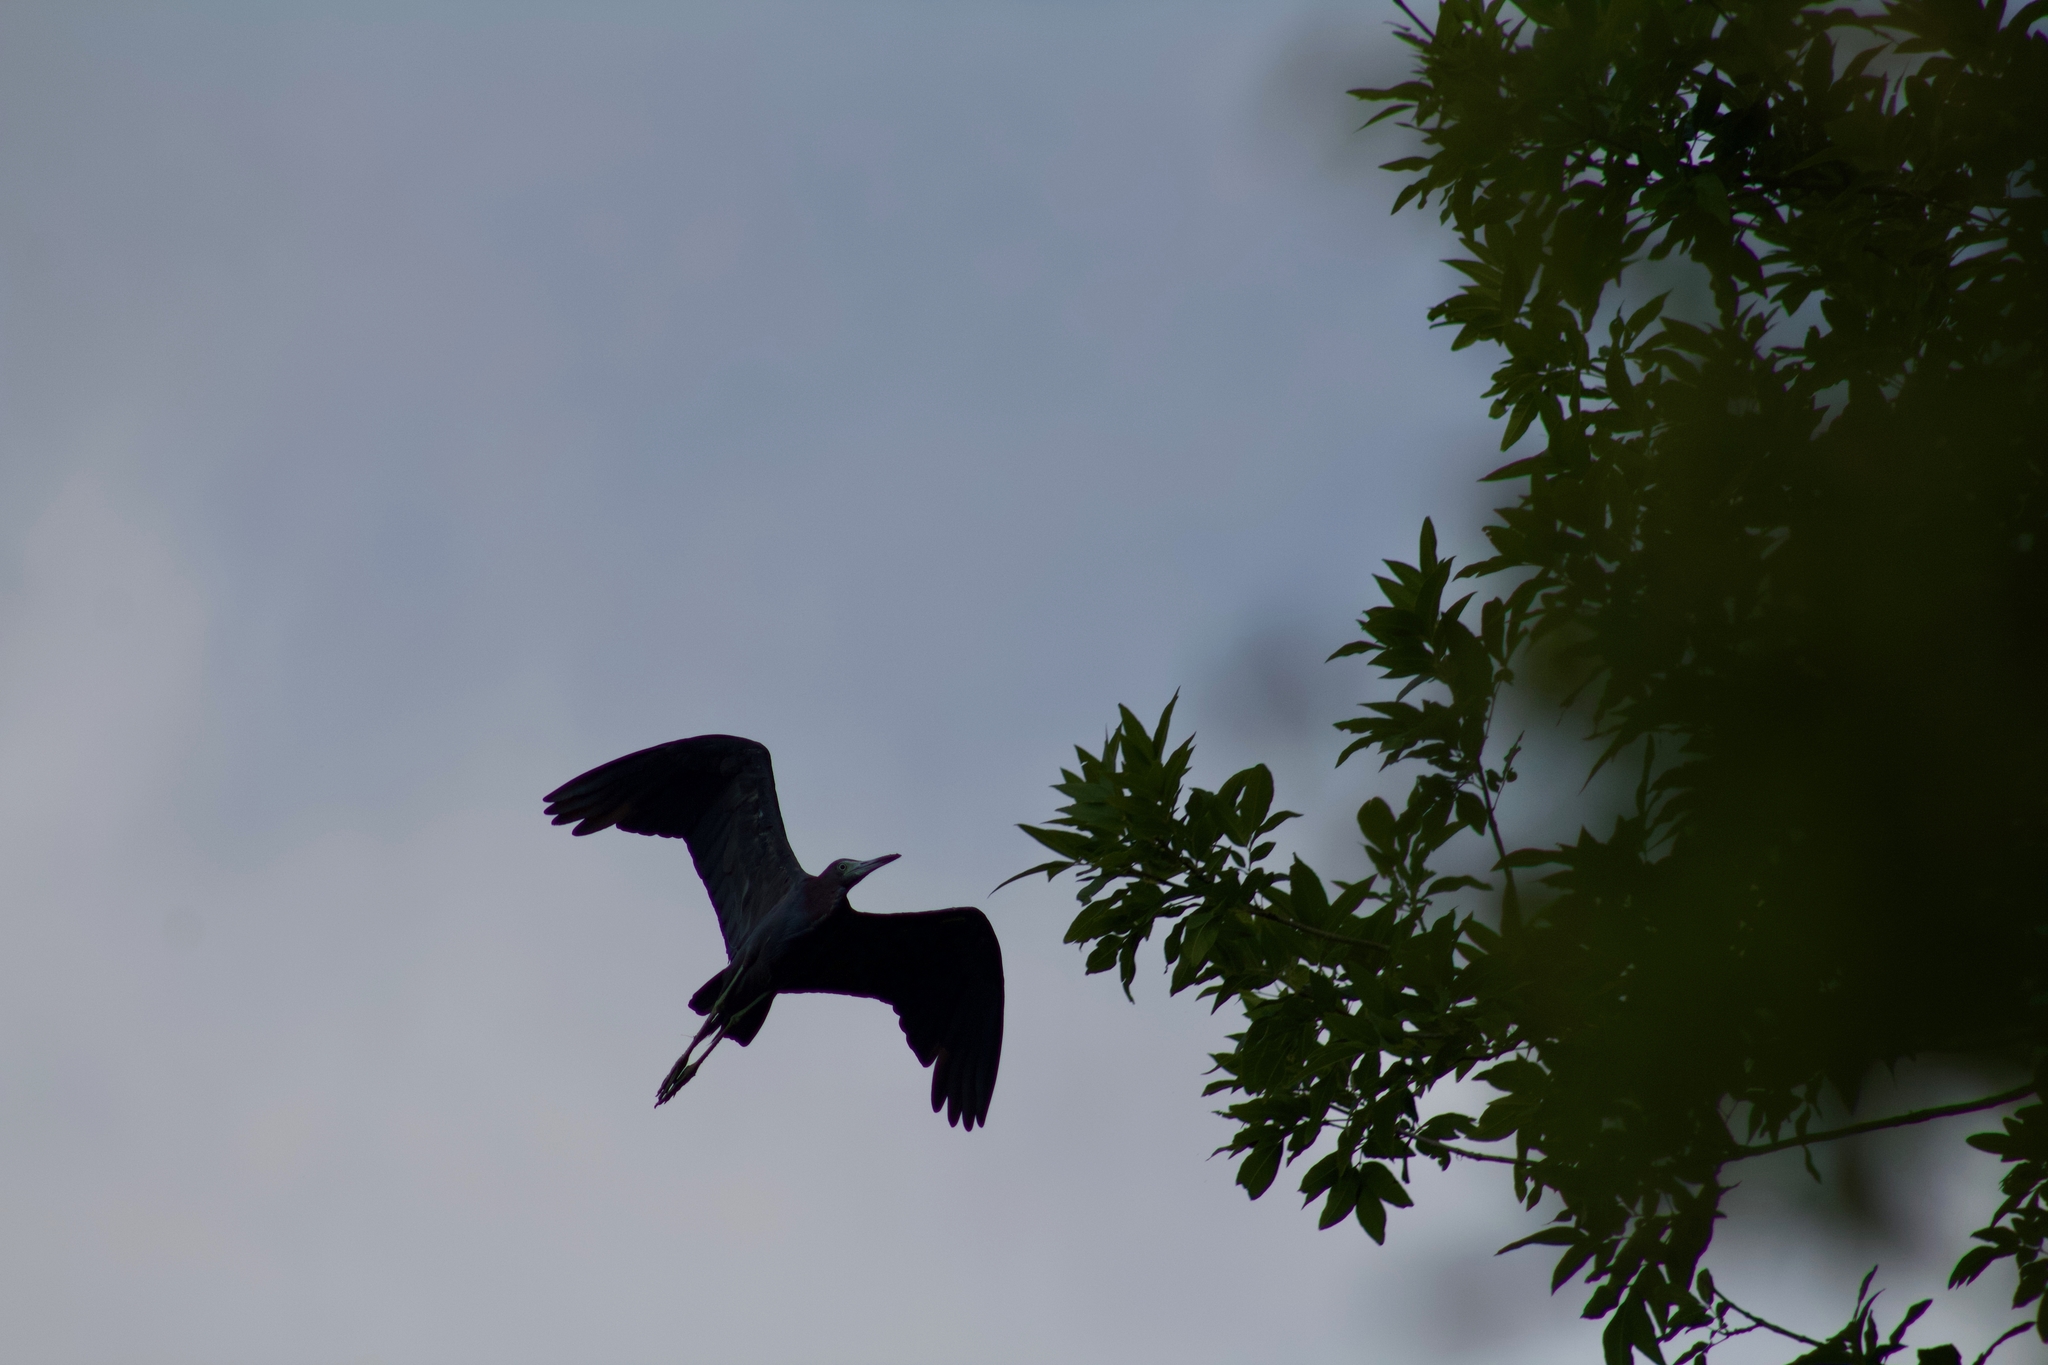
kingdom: Animalia
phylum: Chordata
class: Aves
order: Pelecaniformes
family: Ardeidae
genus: Egretta
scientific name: Egretta caerulea
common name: Little blue heron
